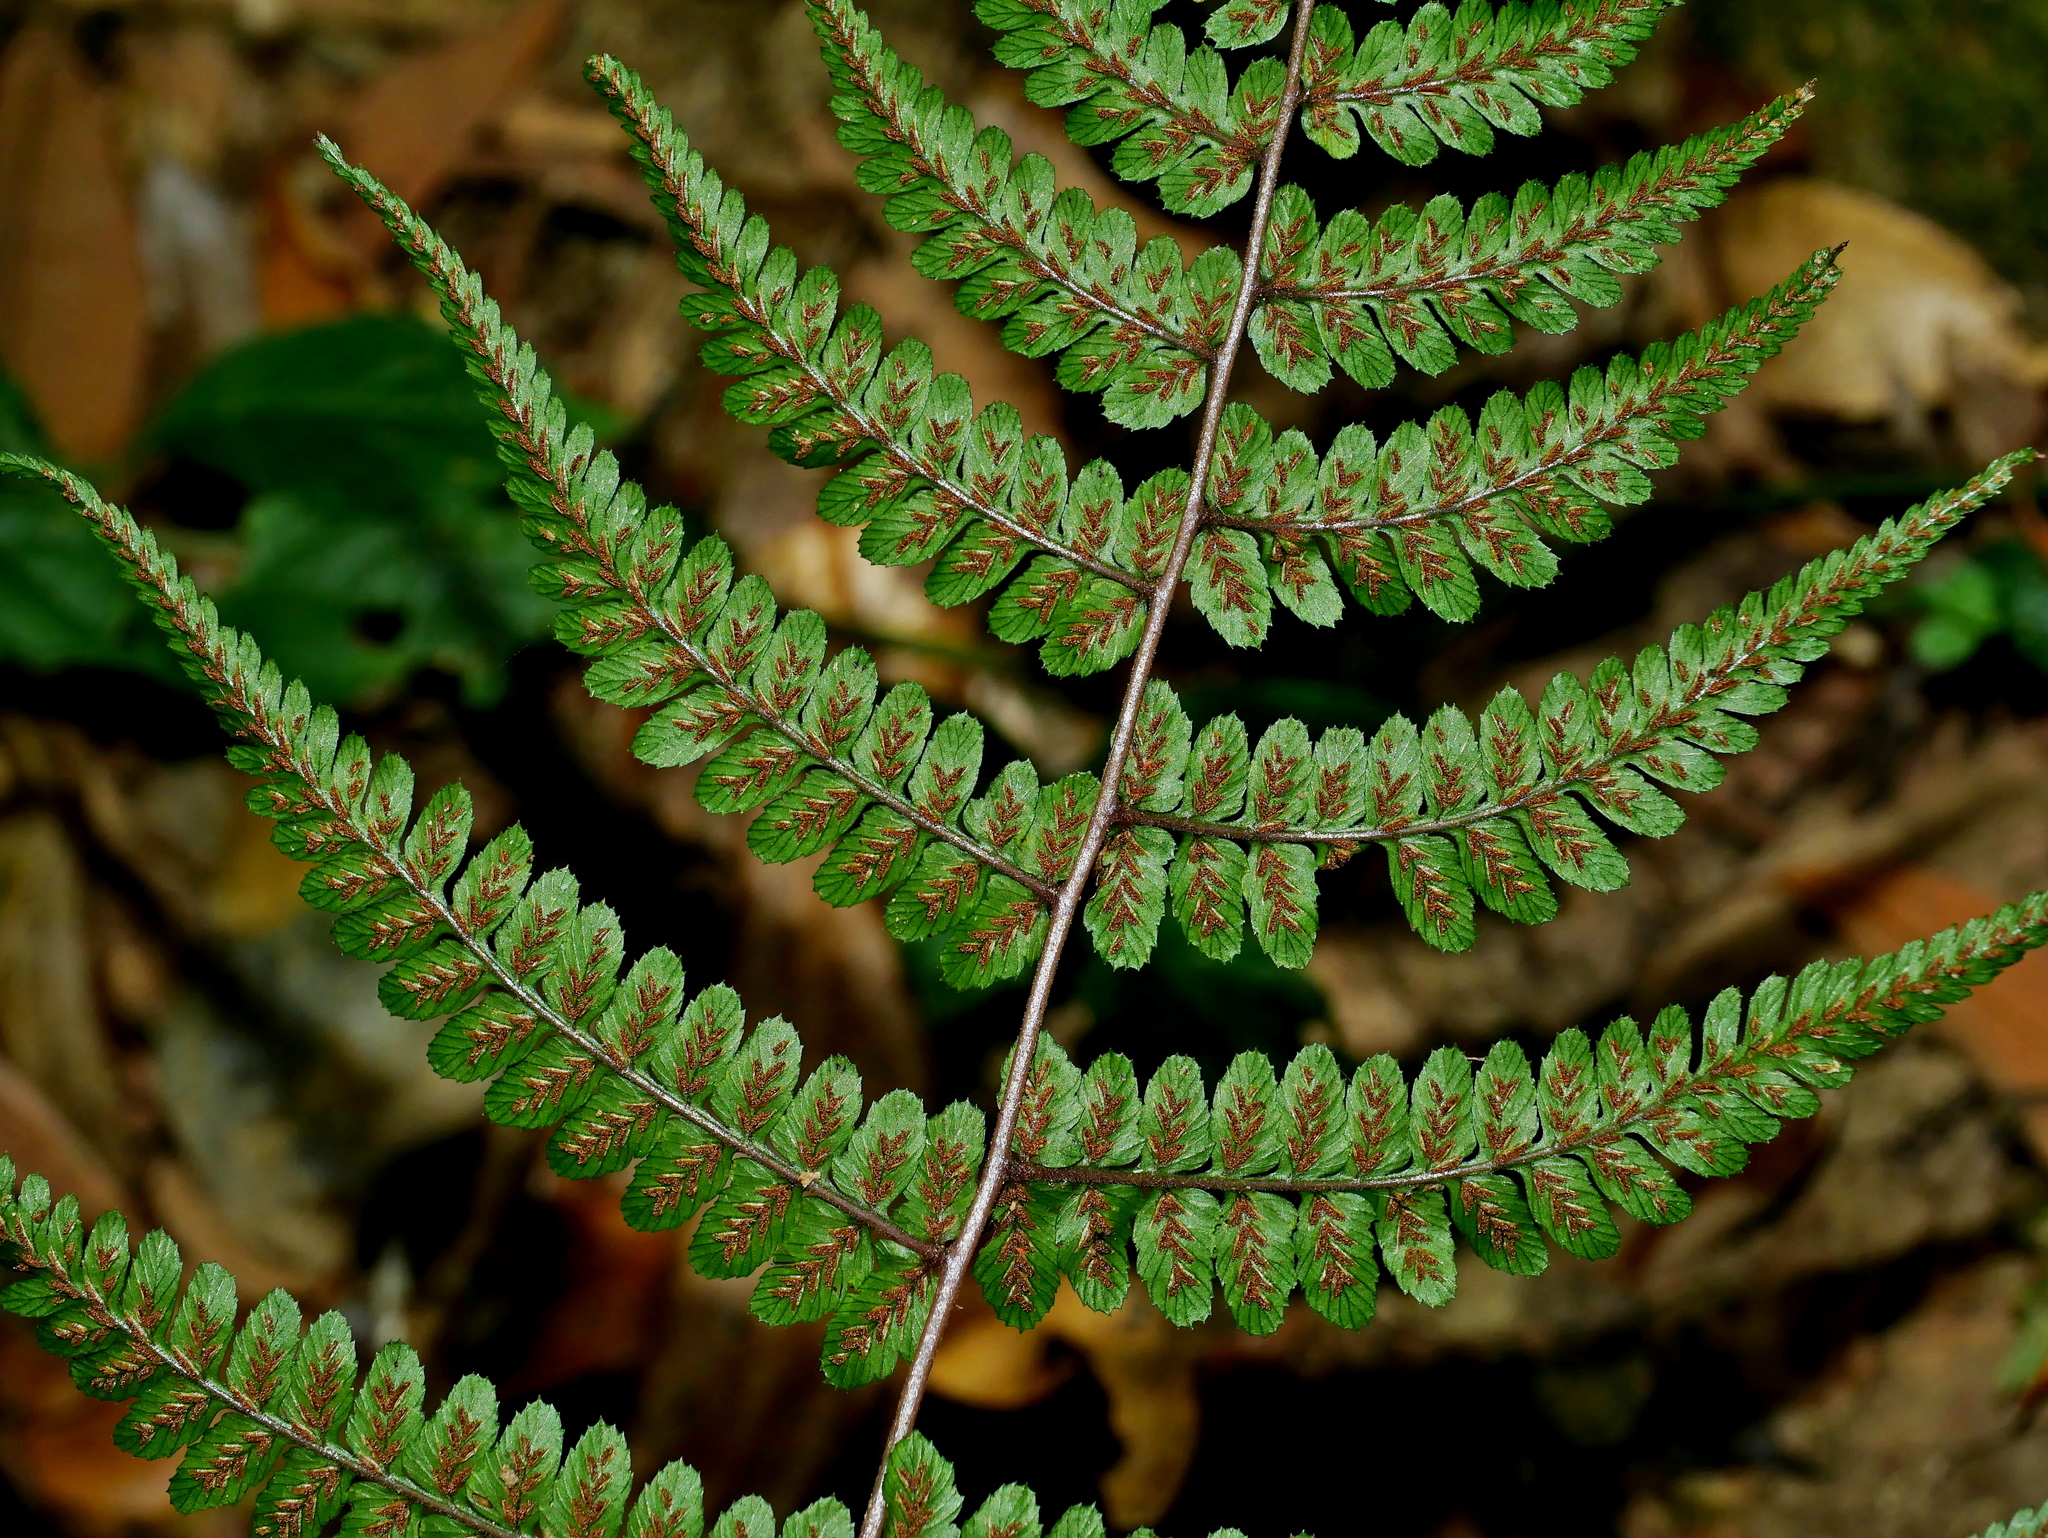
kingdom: Plantae
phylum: Tracheophyta
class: Polypodiopsida
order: Polypodiales
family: Athyriaceae
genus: Athyrium
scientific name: Athyrium leiopodum
